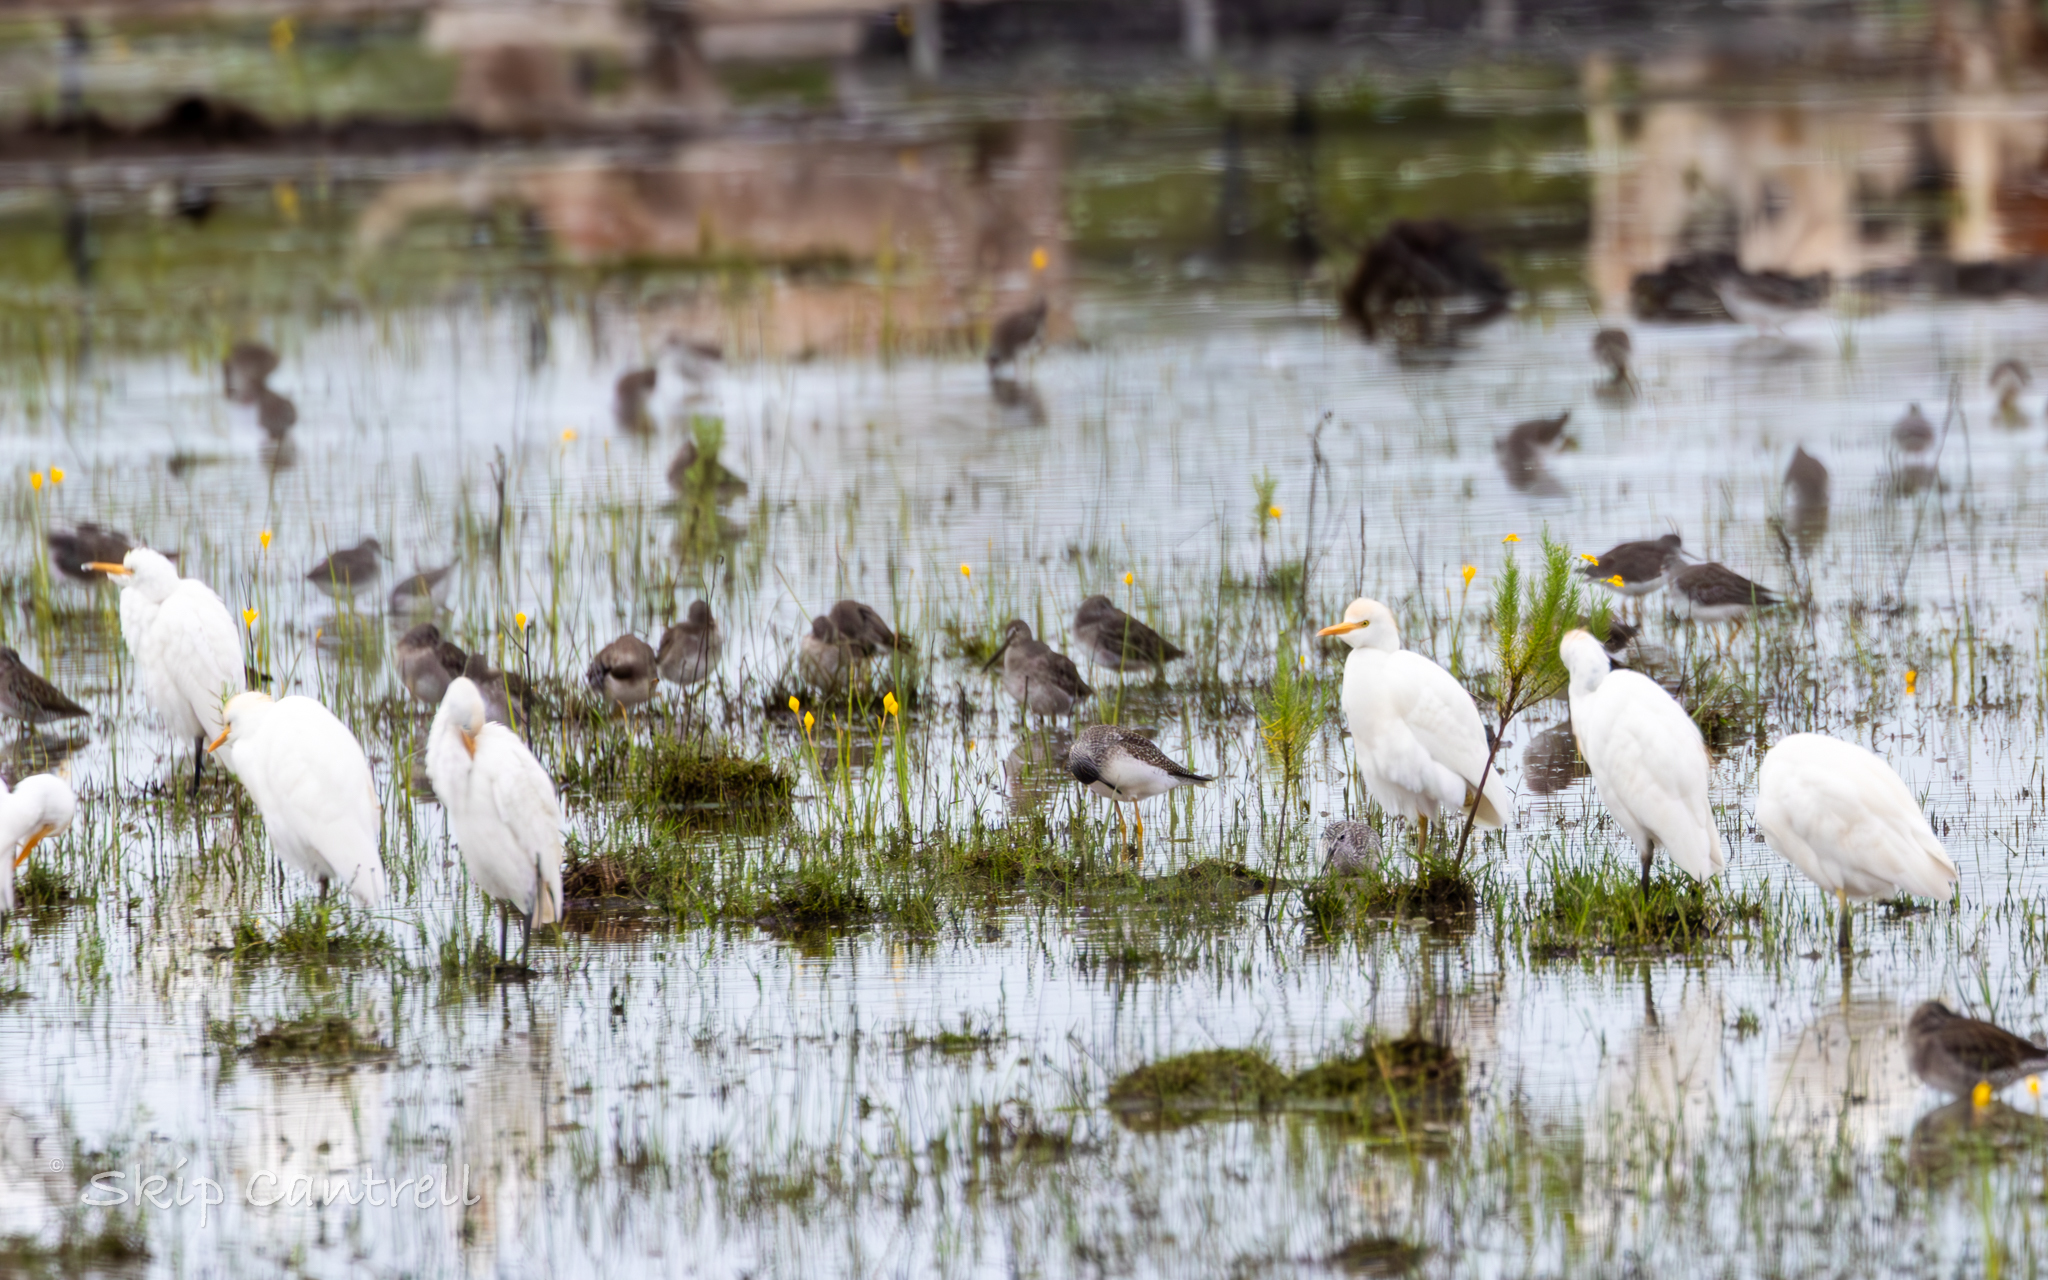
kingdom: Animalia
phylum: Chordata
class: Aves
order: Pelecaniformes
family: Ardeidae
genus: Bubulcus
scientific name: Bubulcus ibis
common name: Cattle egret
